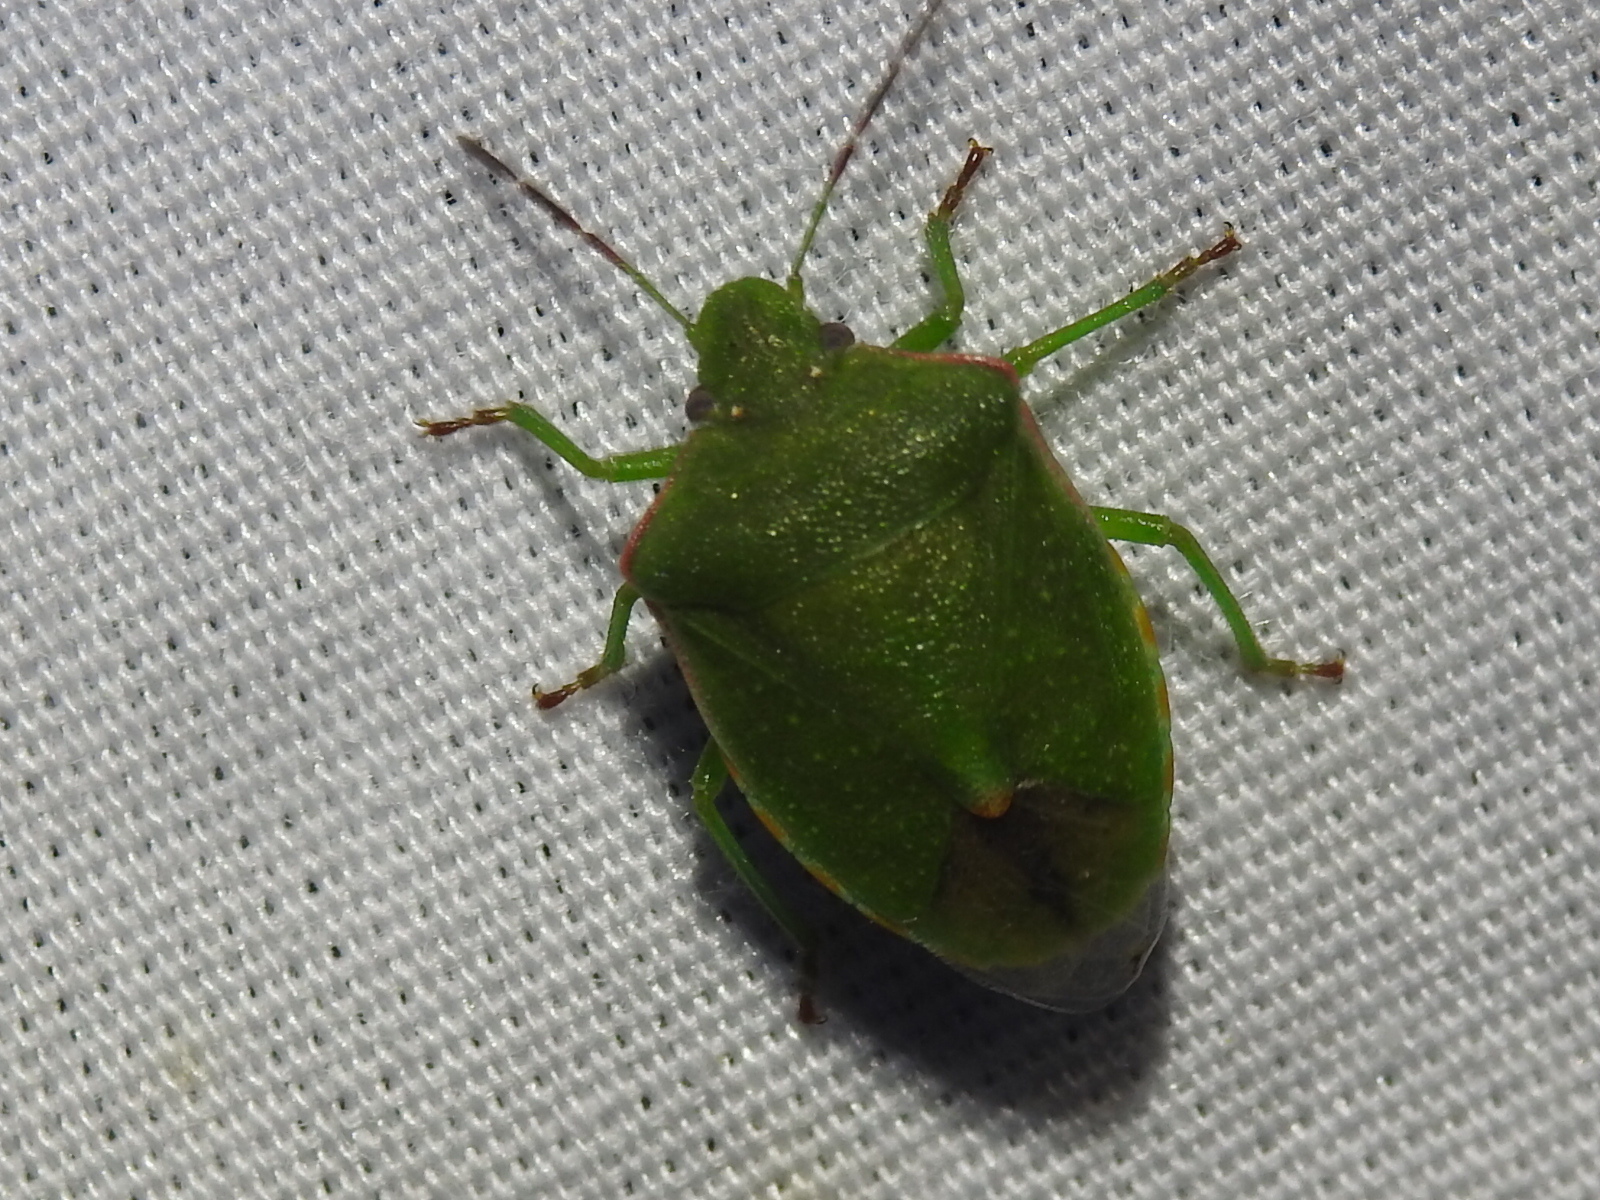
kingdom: Animalia
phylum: Arthropoda
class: Insecta
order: Hemiptera
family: Pentatomidae
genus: Thyanta
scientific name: Thyanta accerra
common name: Stink bug
